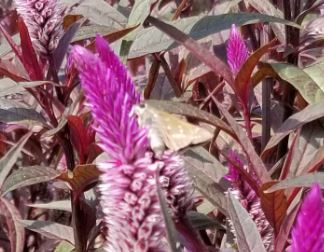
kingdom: Animalia
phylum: Arthropoda
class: Insecta
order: Lepidoptera
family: Hesperiidae
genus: Atalopedes
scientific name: Atalopedes
